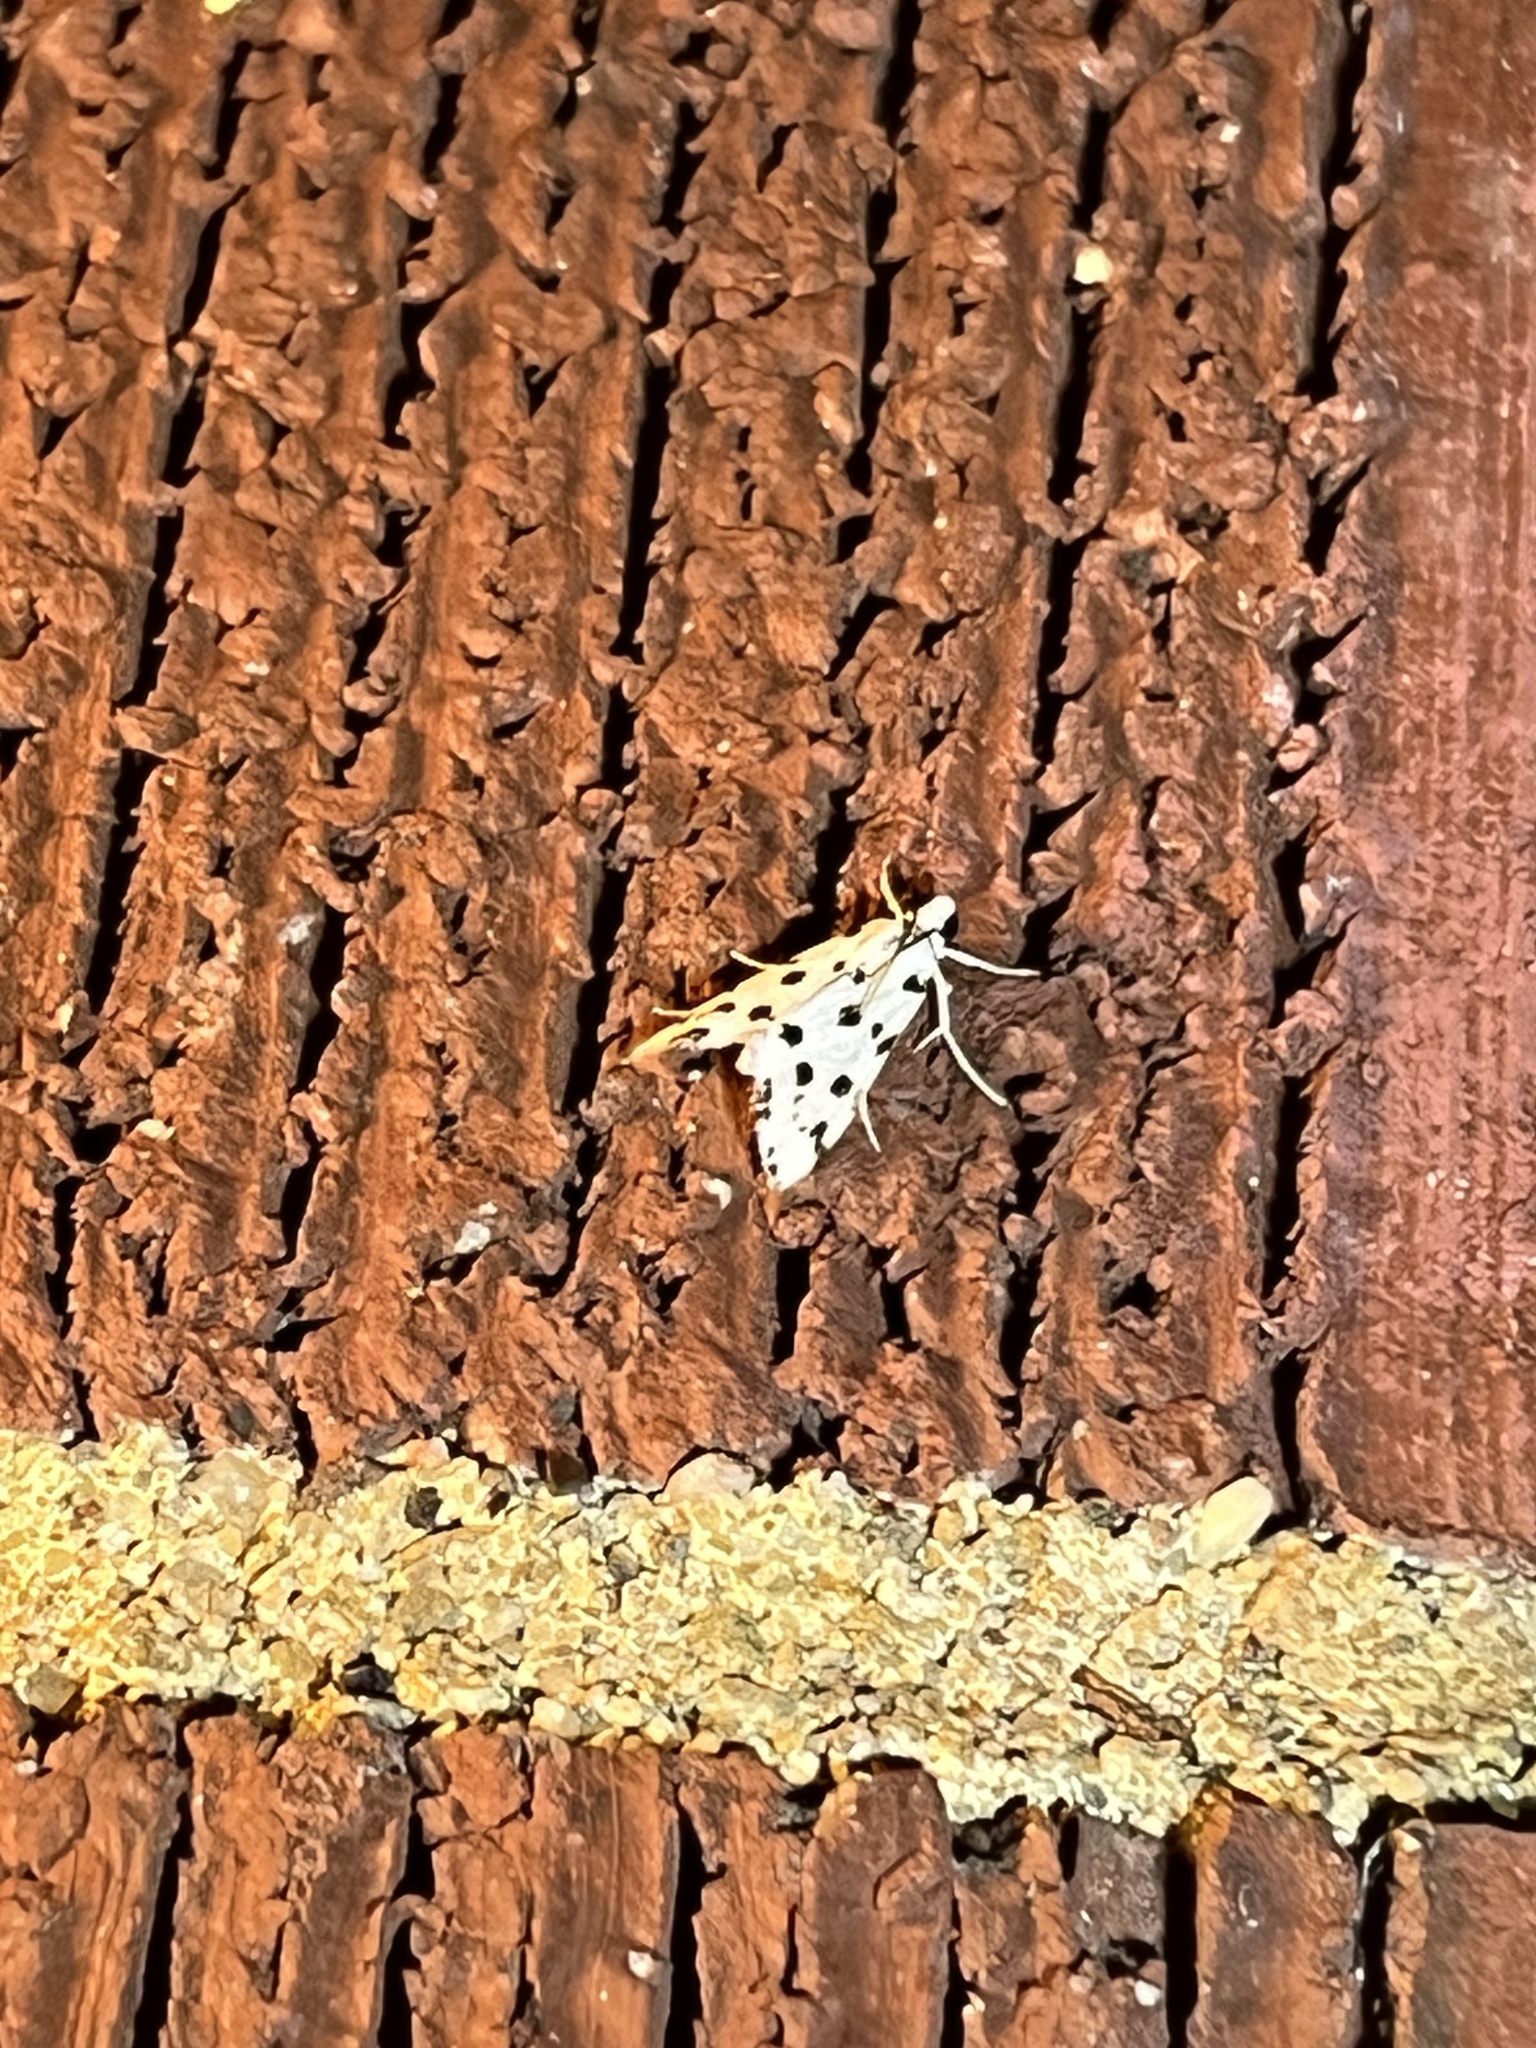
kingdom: Animalia
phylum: Arthropoda
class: Insecta
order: Lepidoptera
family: Crambidae
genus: Eustixia
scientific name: Eustixia pupula
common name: American cabbage pearl
